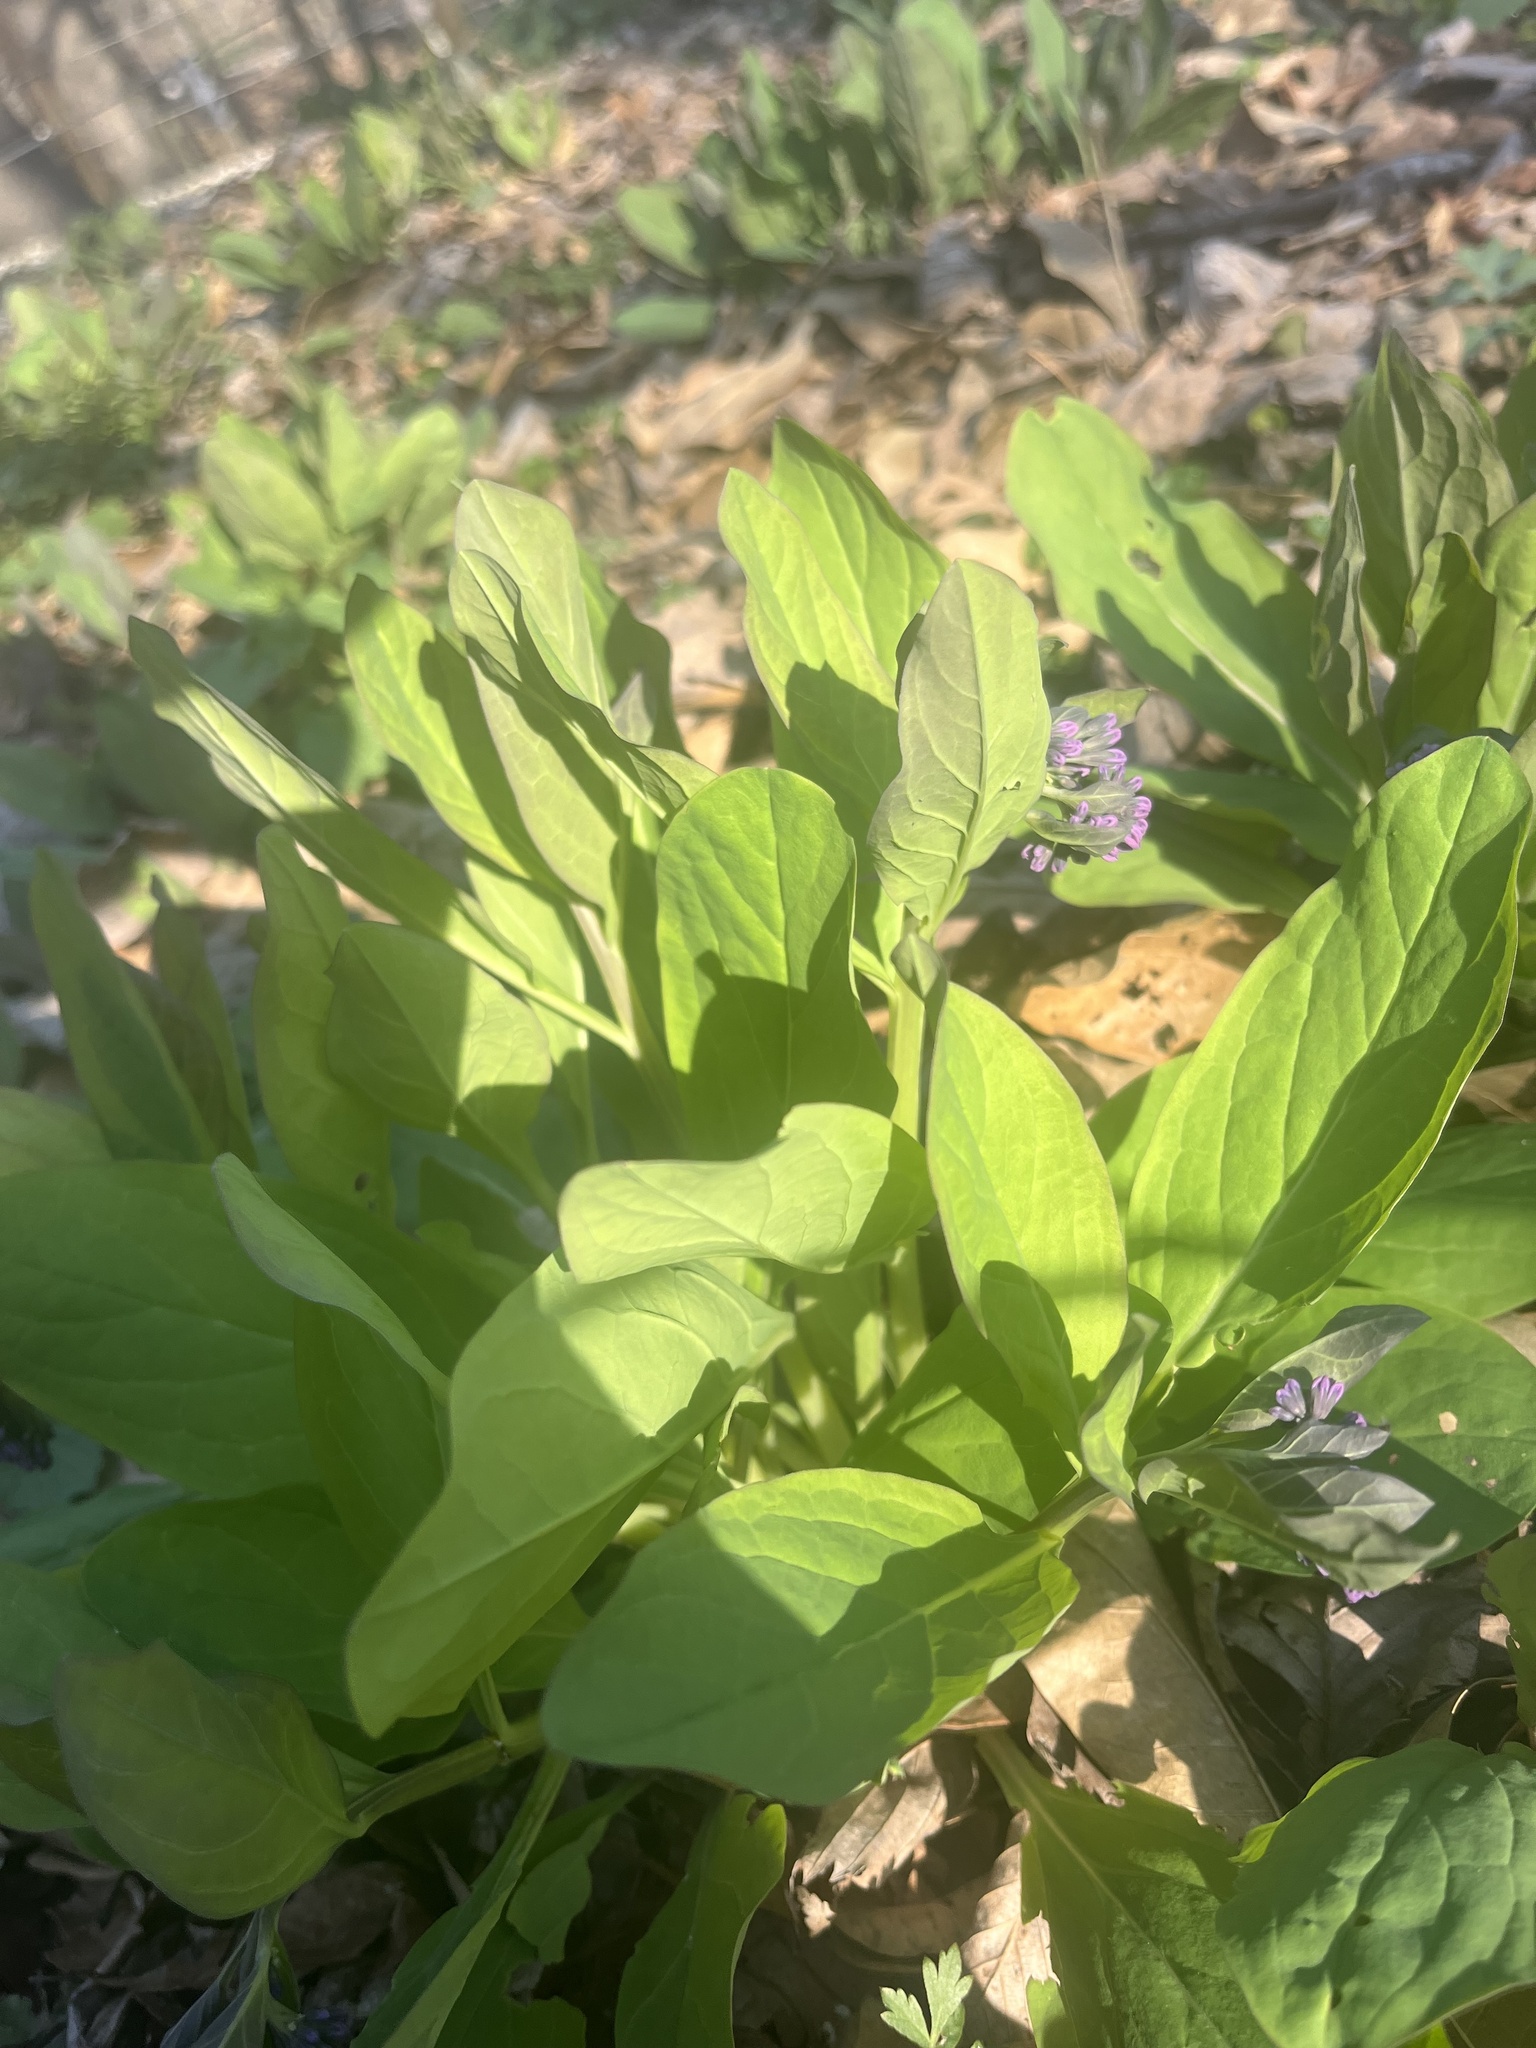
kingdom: Plantae
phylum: Tracheophyta
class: Magnoliopsida
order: Boraginales
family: Boraginaceae
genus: Mertensia
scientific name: Mertensia virginica
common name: Virginia bluebells
